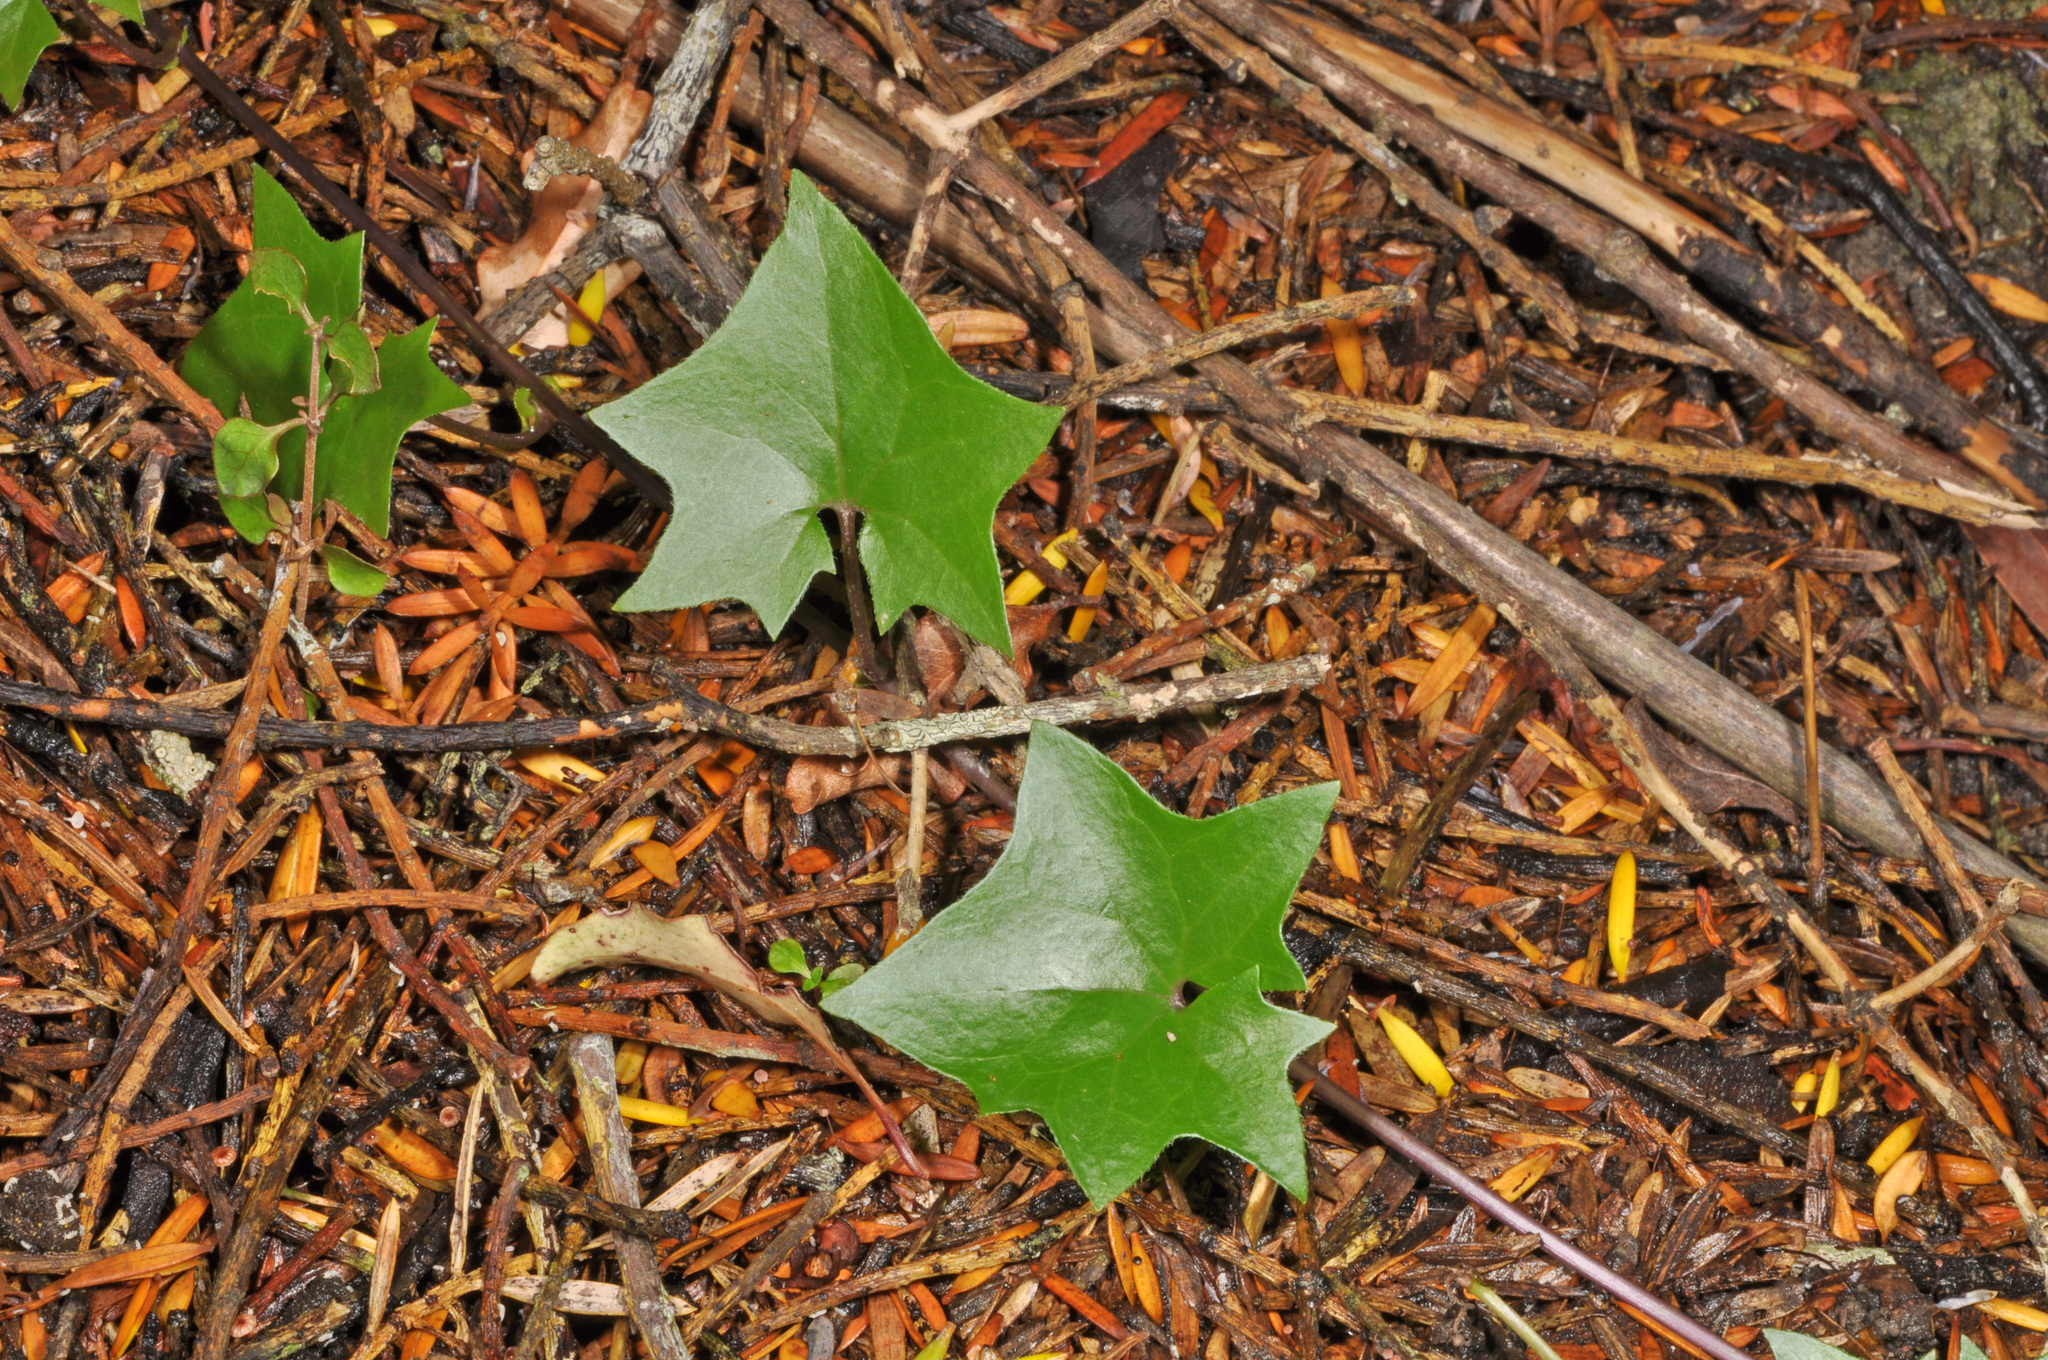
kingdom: Plantae
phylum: Tracheophyta
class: Magnoliopsida
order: Asterales
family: Asteraceae
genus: Delairea
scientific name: Delairea odorata
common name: Cape-ivy
